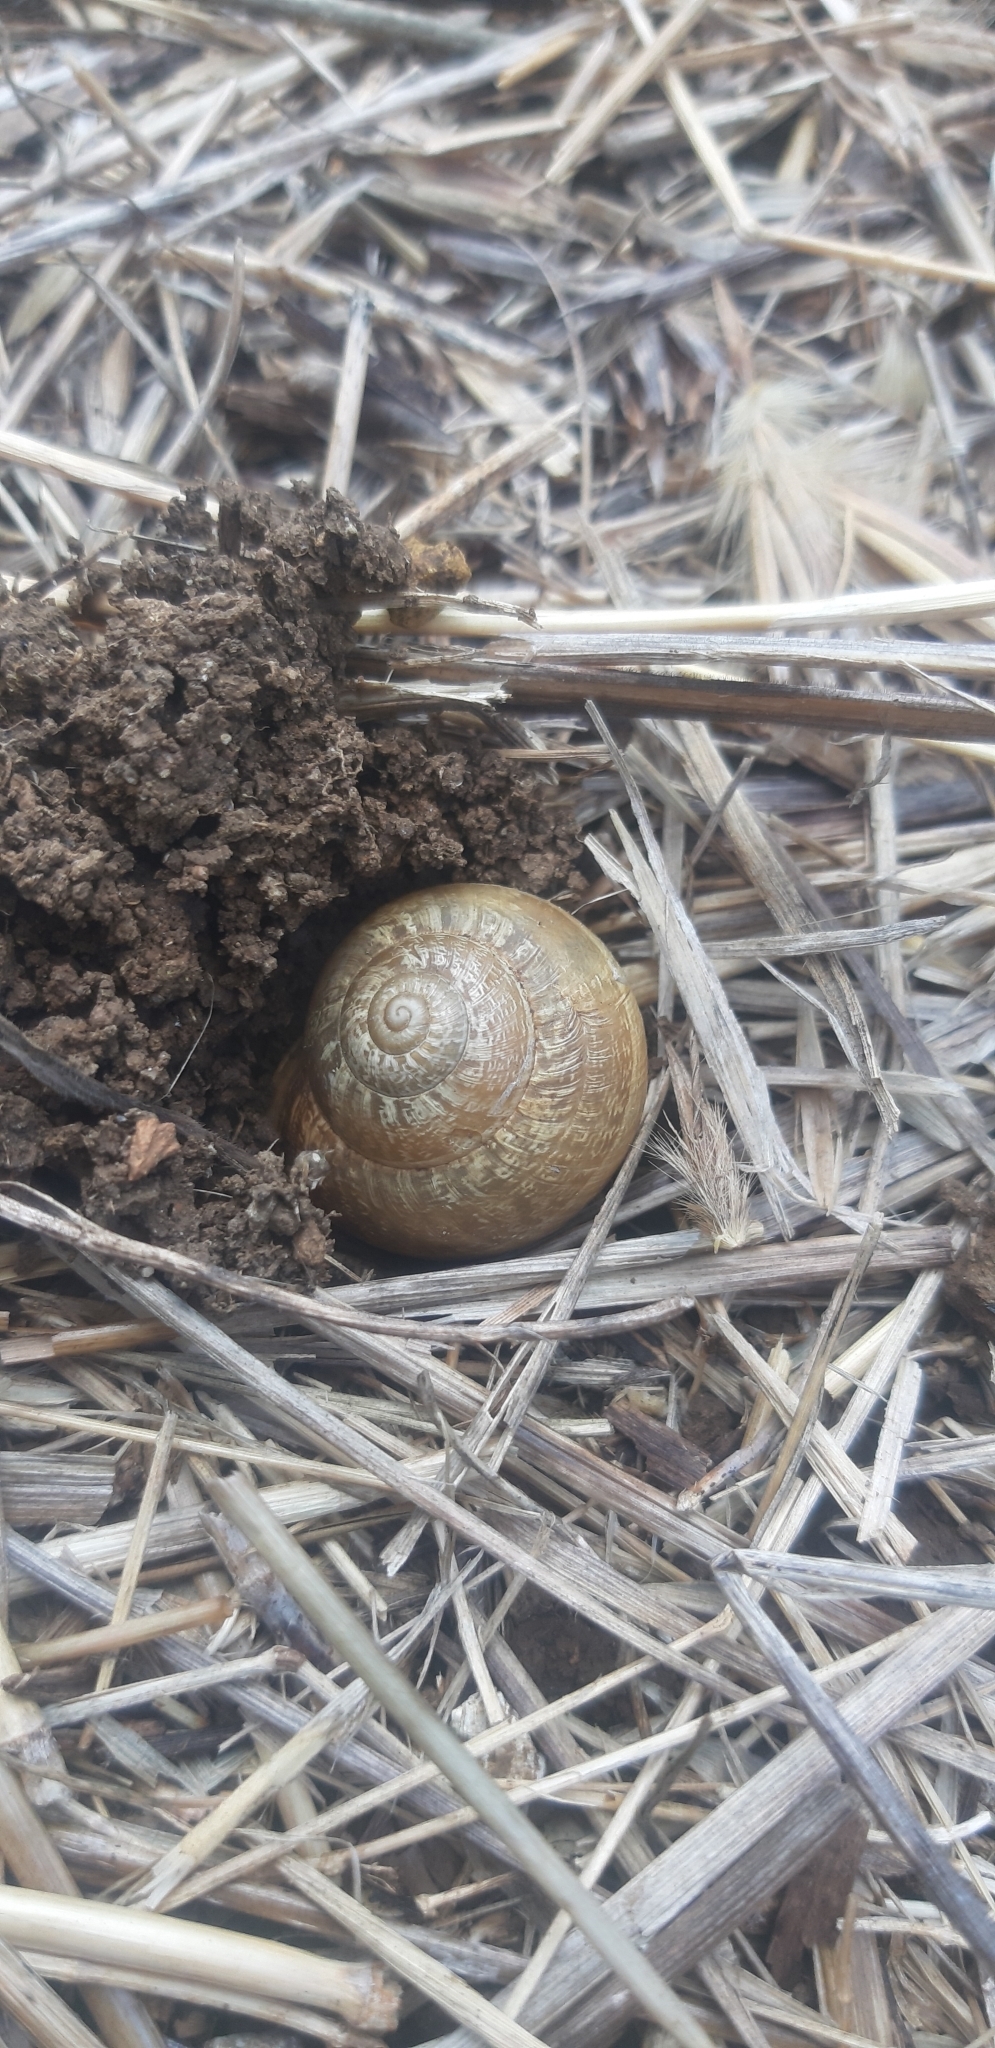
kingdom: Animalia
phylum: Mollusca
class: Gastropoda
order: Stylommatophora
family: Helicidae
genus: Eobania
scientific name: Eobania vermiculata
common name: Chocolateband snail
